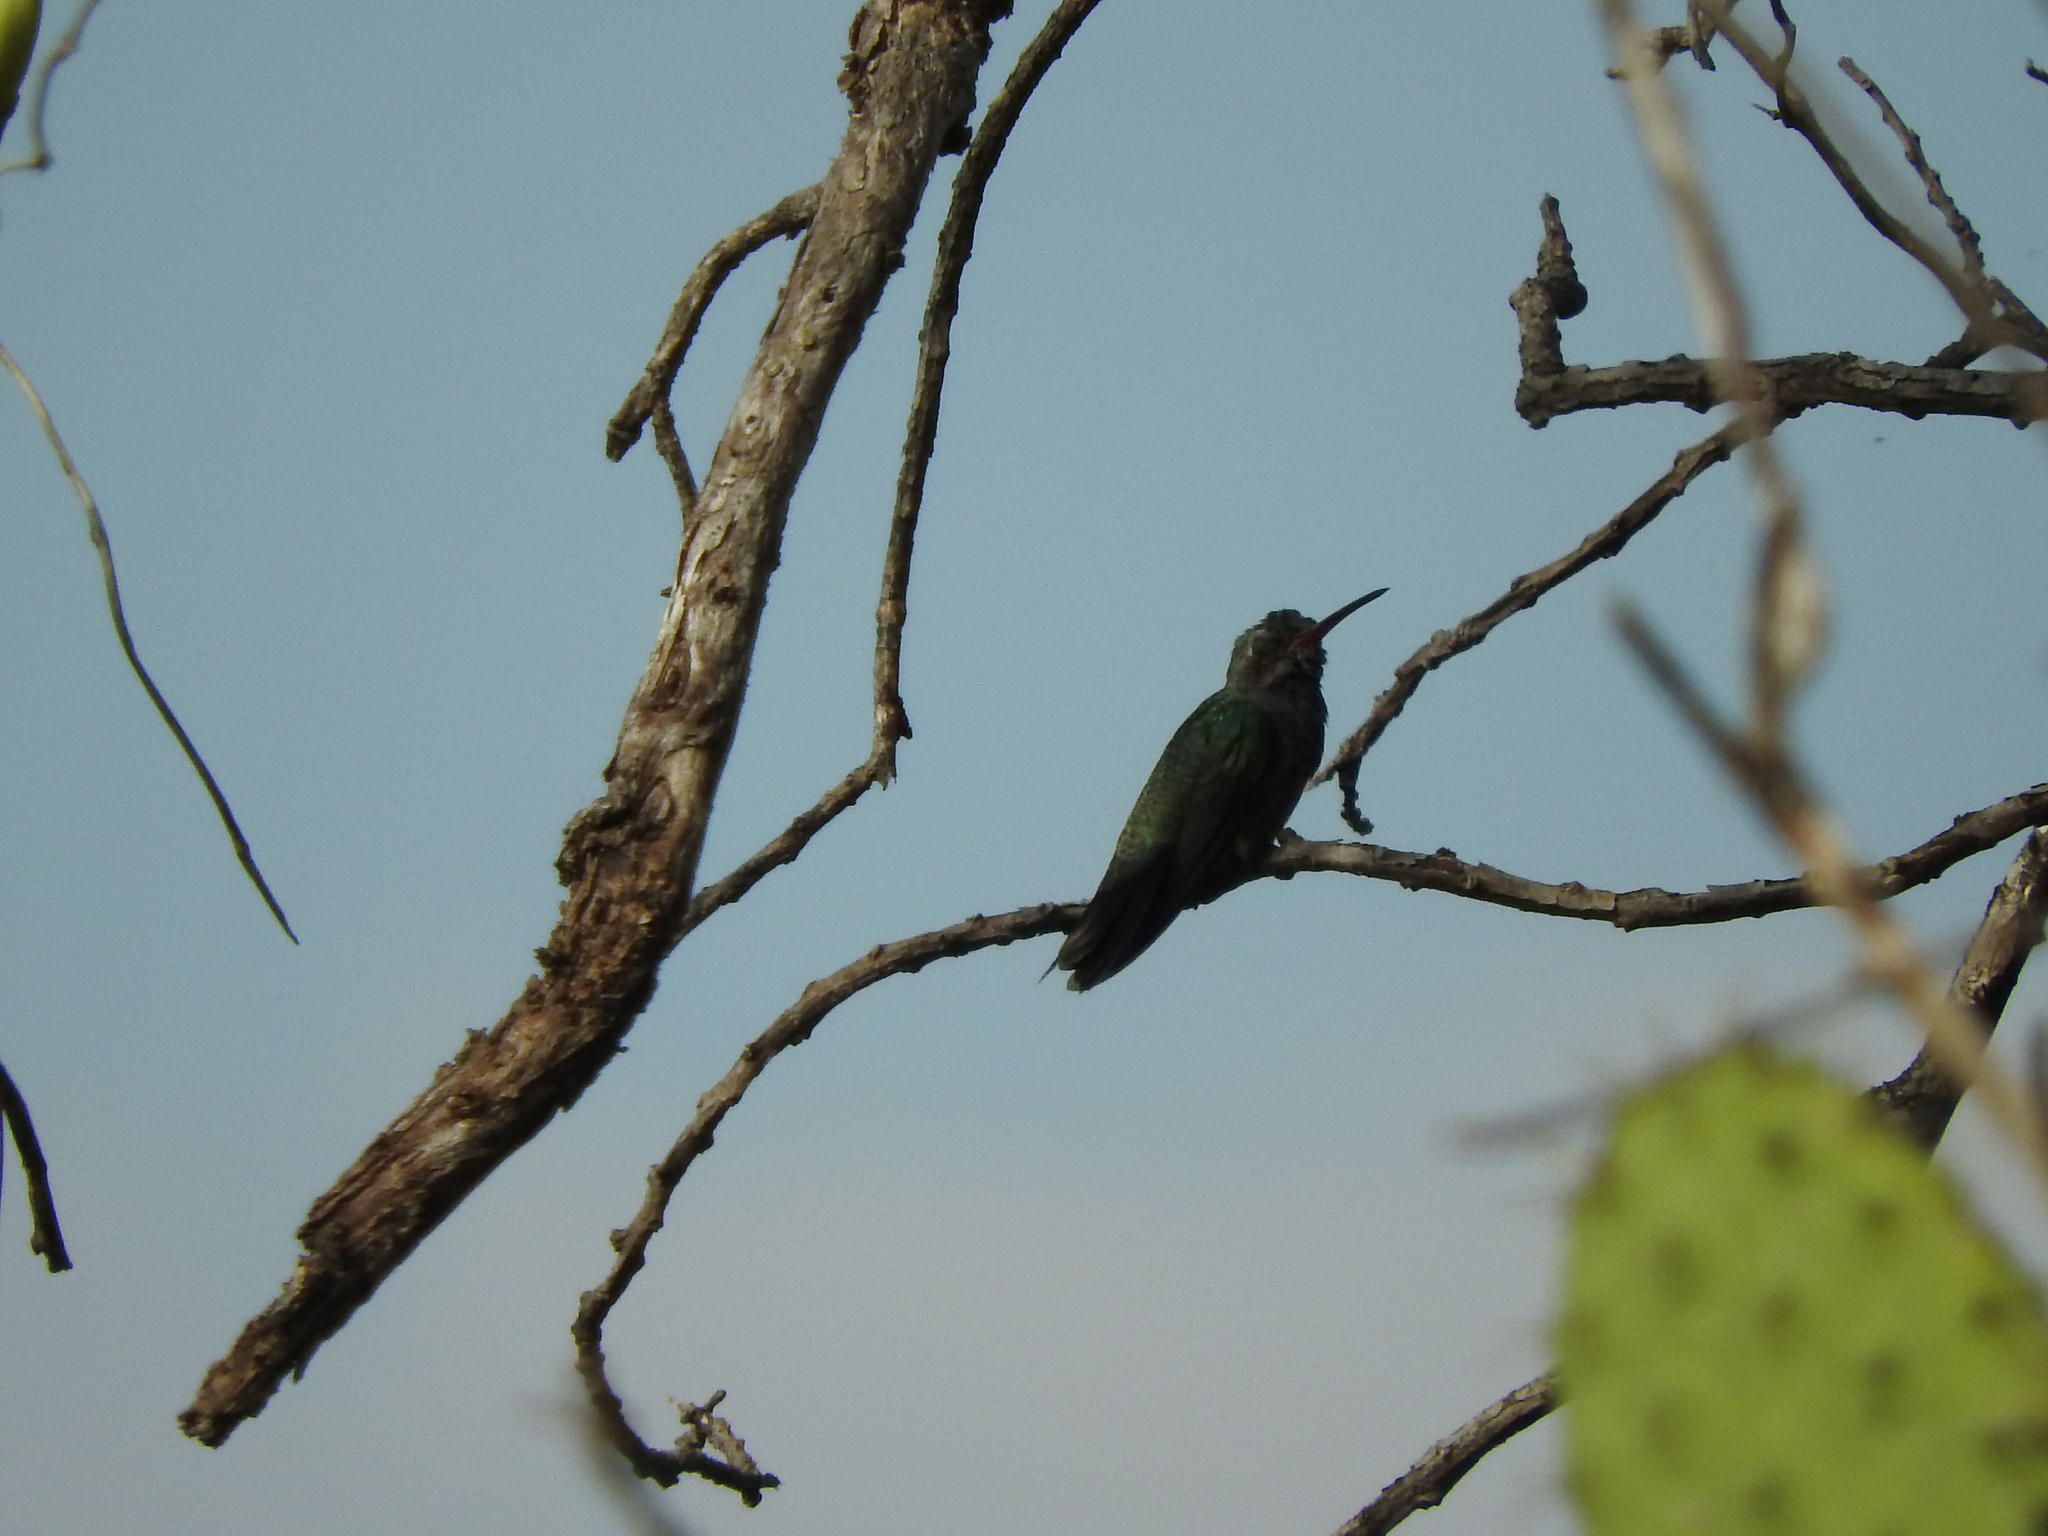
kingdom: Animalia
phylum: Chordata
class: Aves
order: Apodiformes
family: Trochilidae
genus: Cynanthus
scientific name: Cynanthus latirostris
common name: Broad-billed hummingbird
